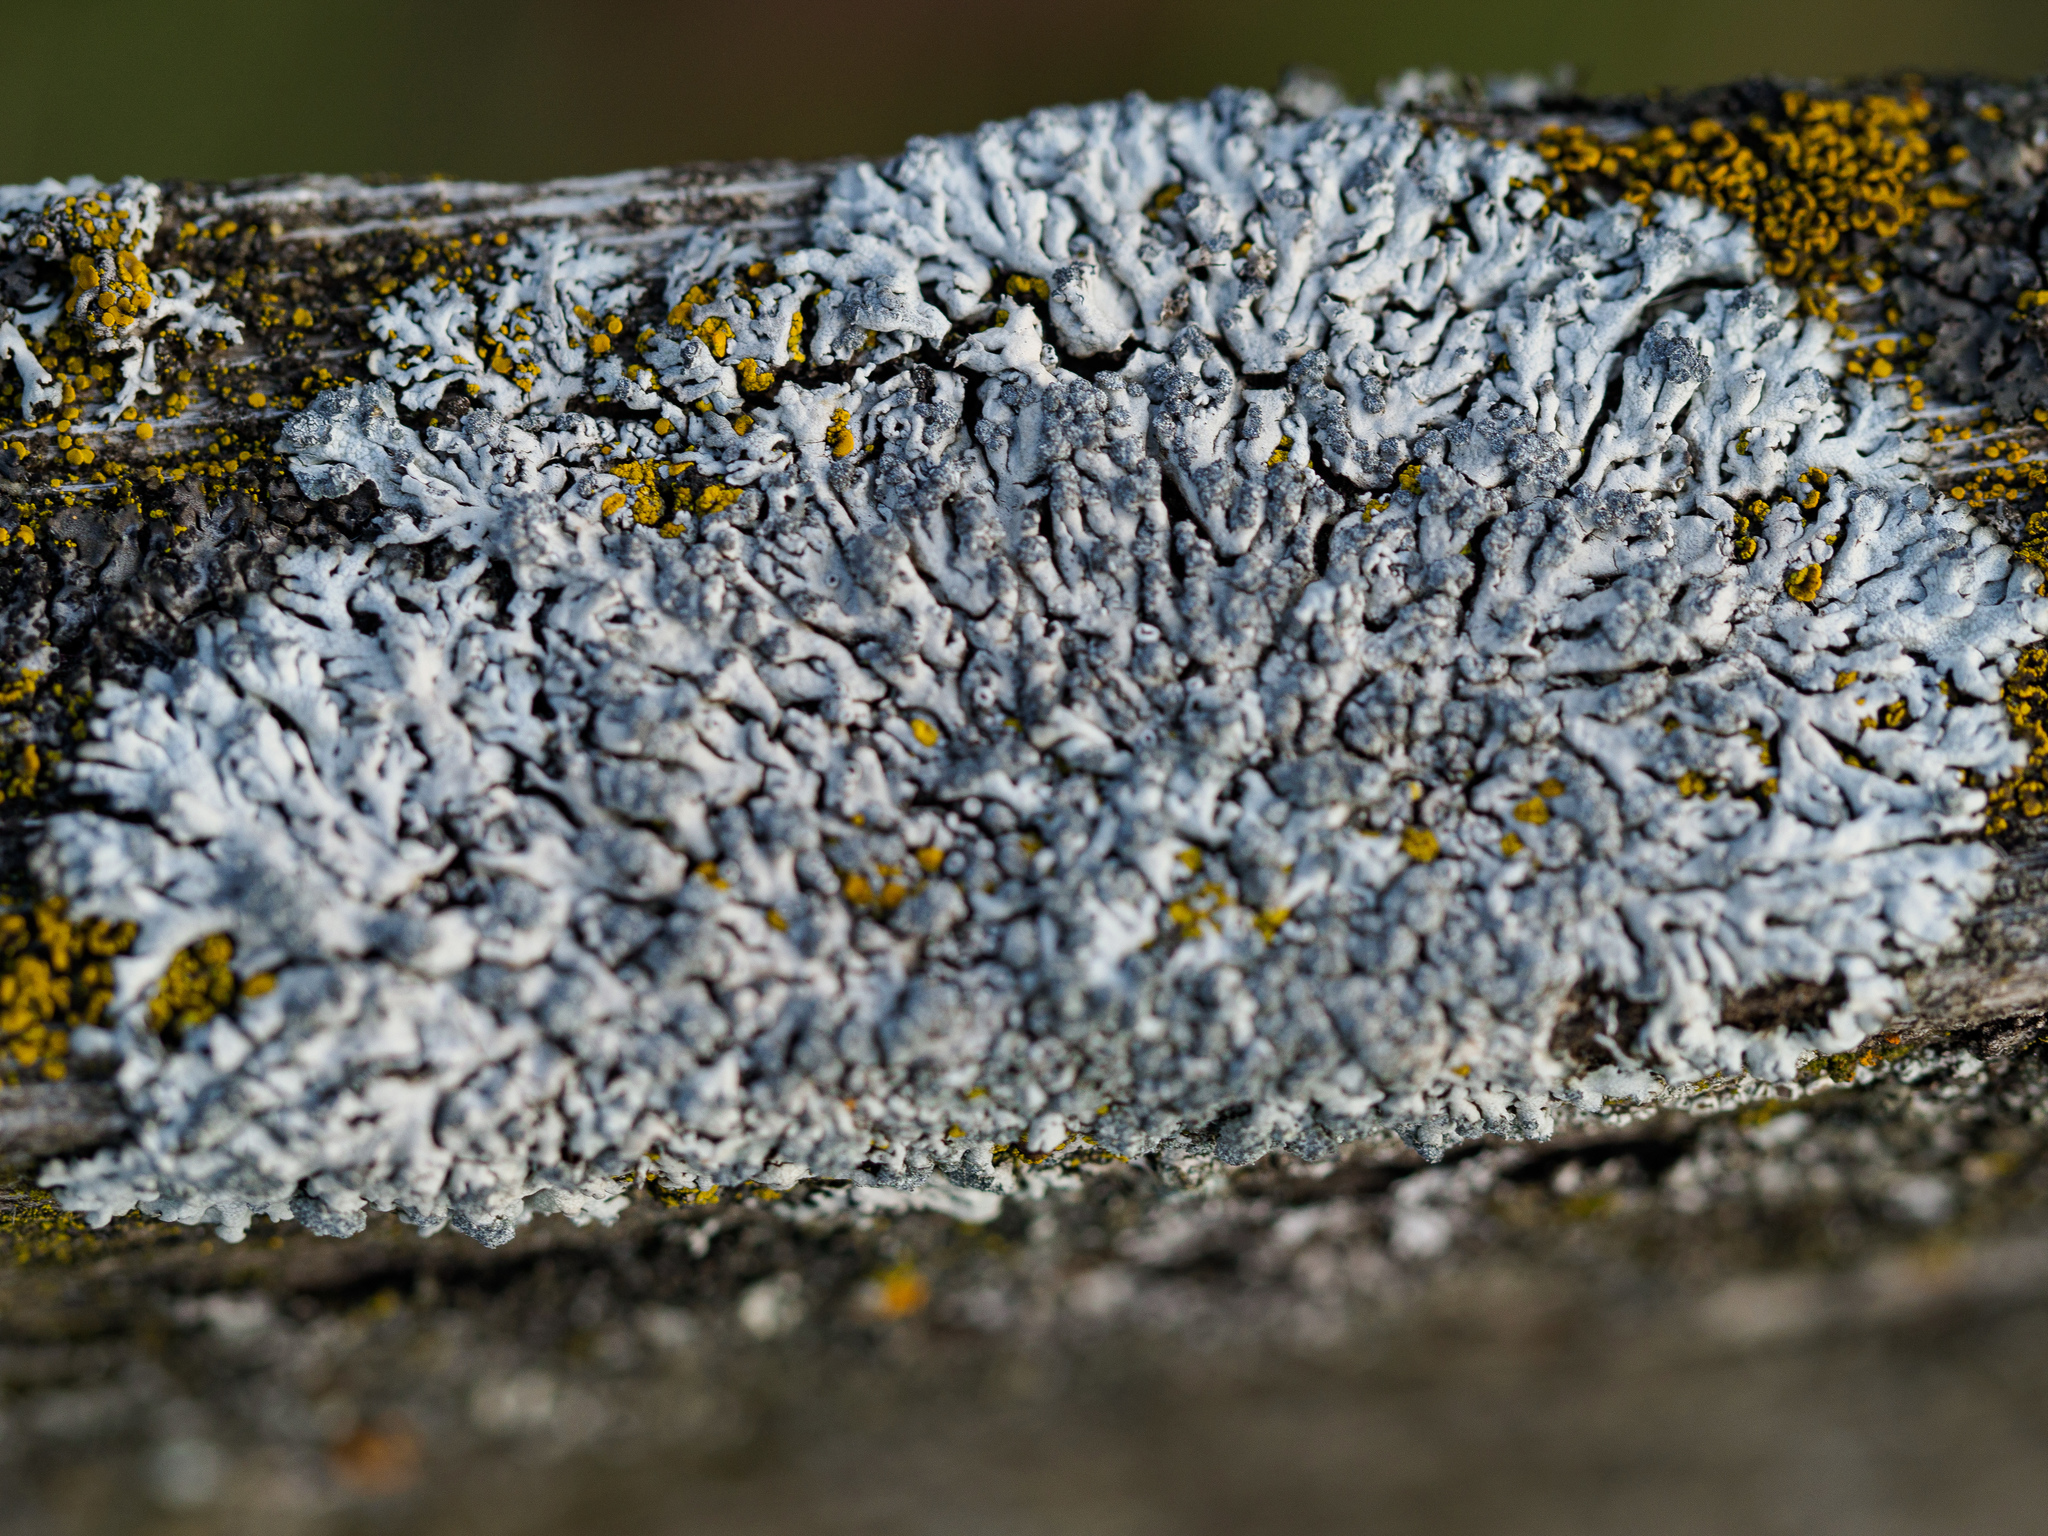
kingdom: Fungi
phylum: Ascomycota
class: Lecanoromycetes
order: Caliciales
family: Physciaceae
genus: Physcia
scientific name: Physcia caesia
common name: Blue-gray rosette lichen
